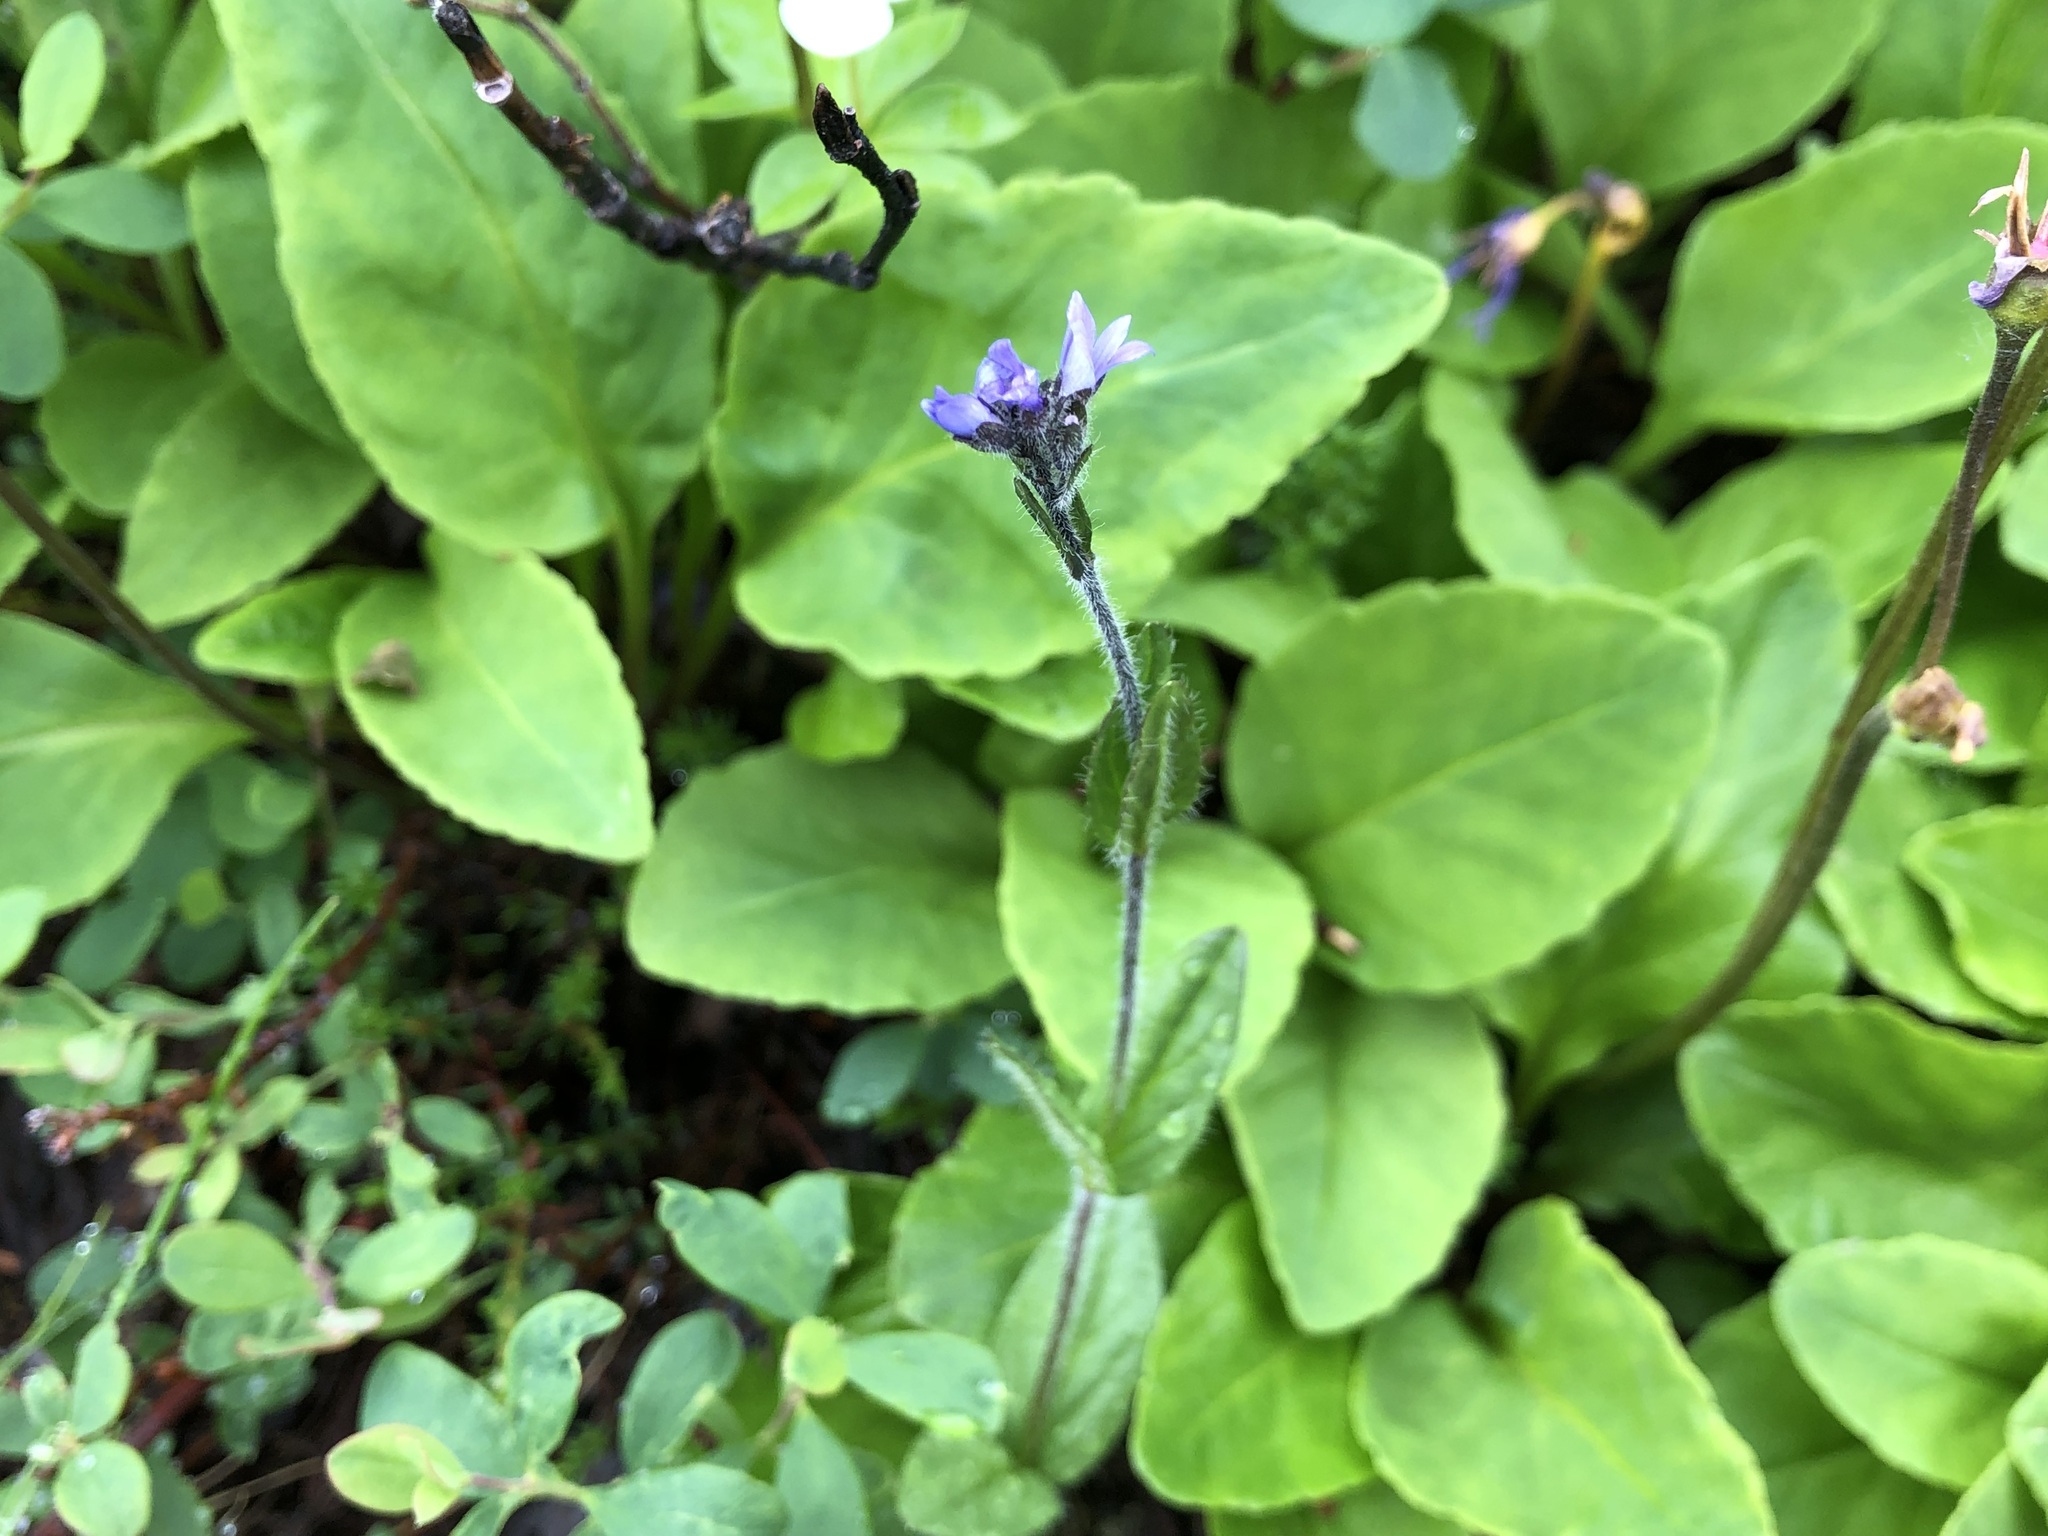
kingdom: Plantae
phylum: Tracheophyta
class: Magnoliopsida
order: Lamiales
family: Plantaginaceae
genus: Veronica
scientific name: Veronica wormskjoldii
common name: American alpine speedwell
